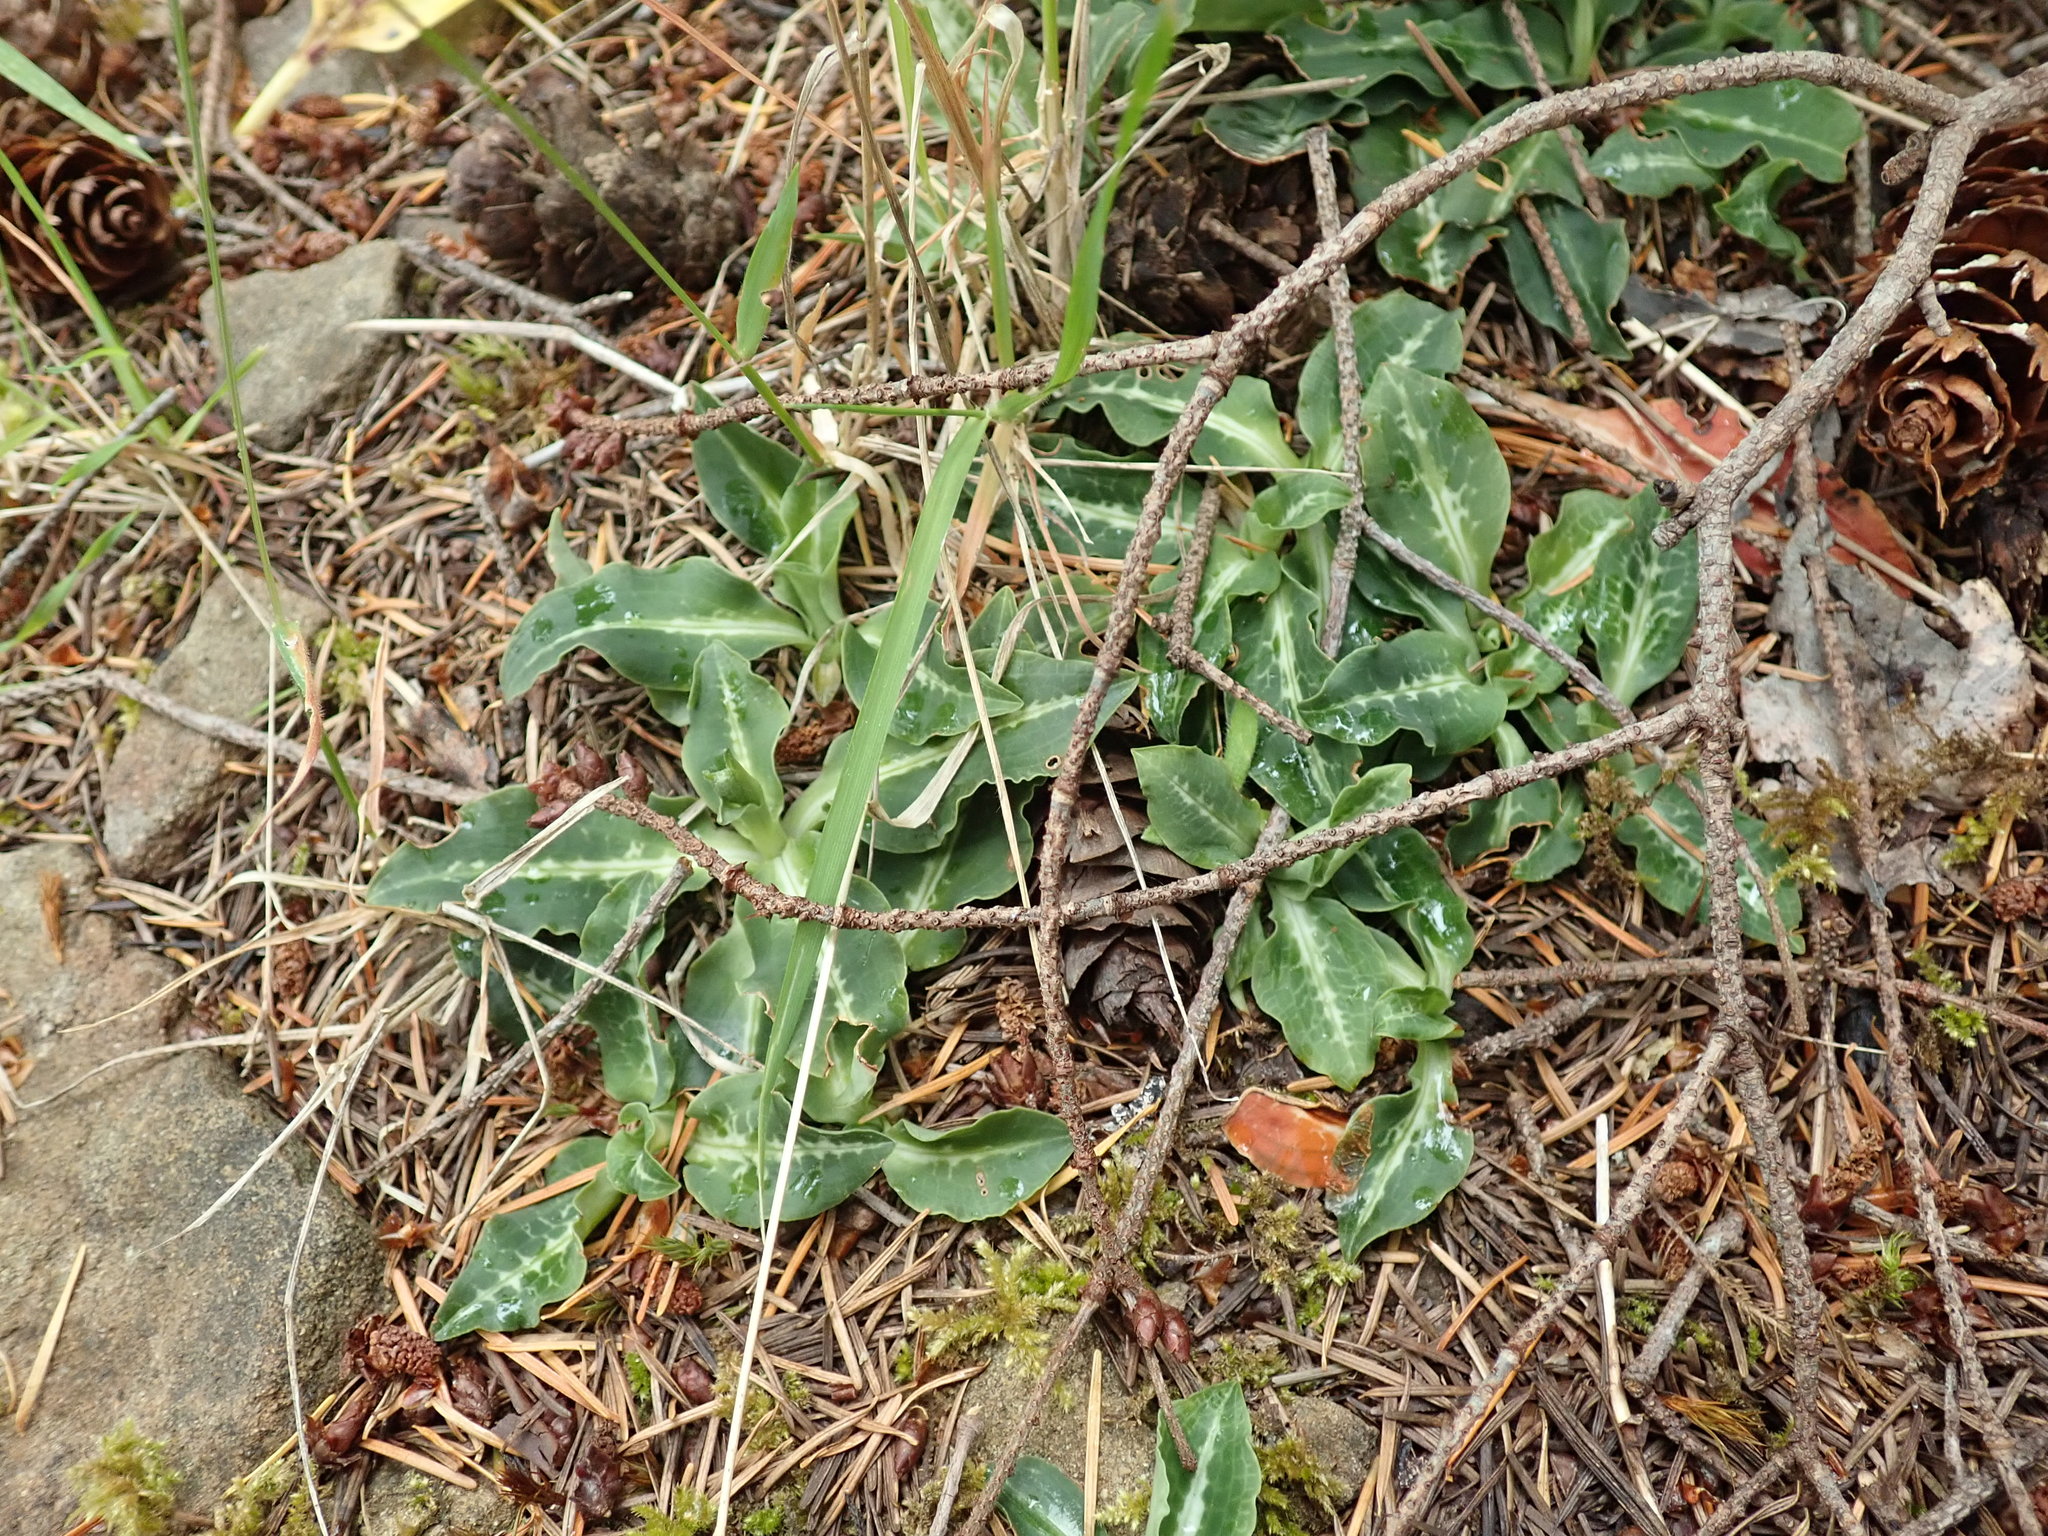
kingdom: Plantae
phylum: Tracheophyta
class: Liliopsida
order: Asparagales
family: Orchidaceae
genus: Goodyera
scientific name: Goodyera oblongifolia
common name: Giant rattlesnake-plantain
